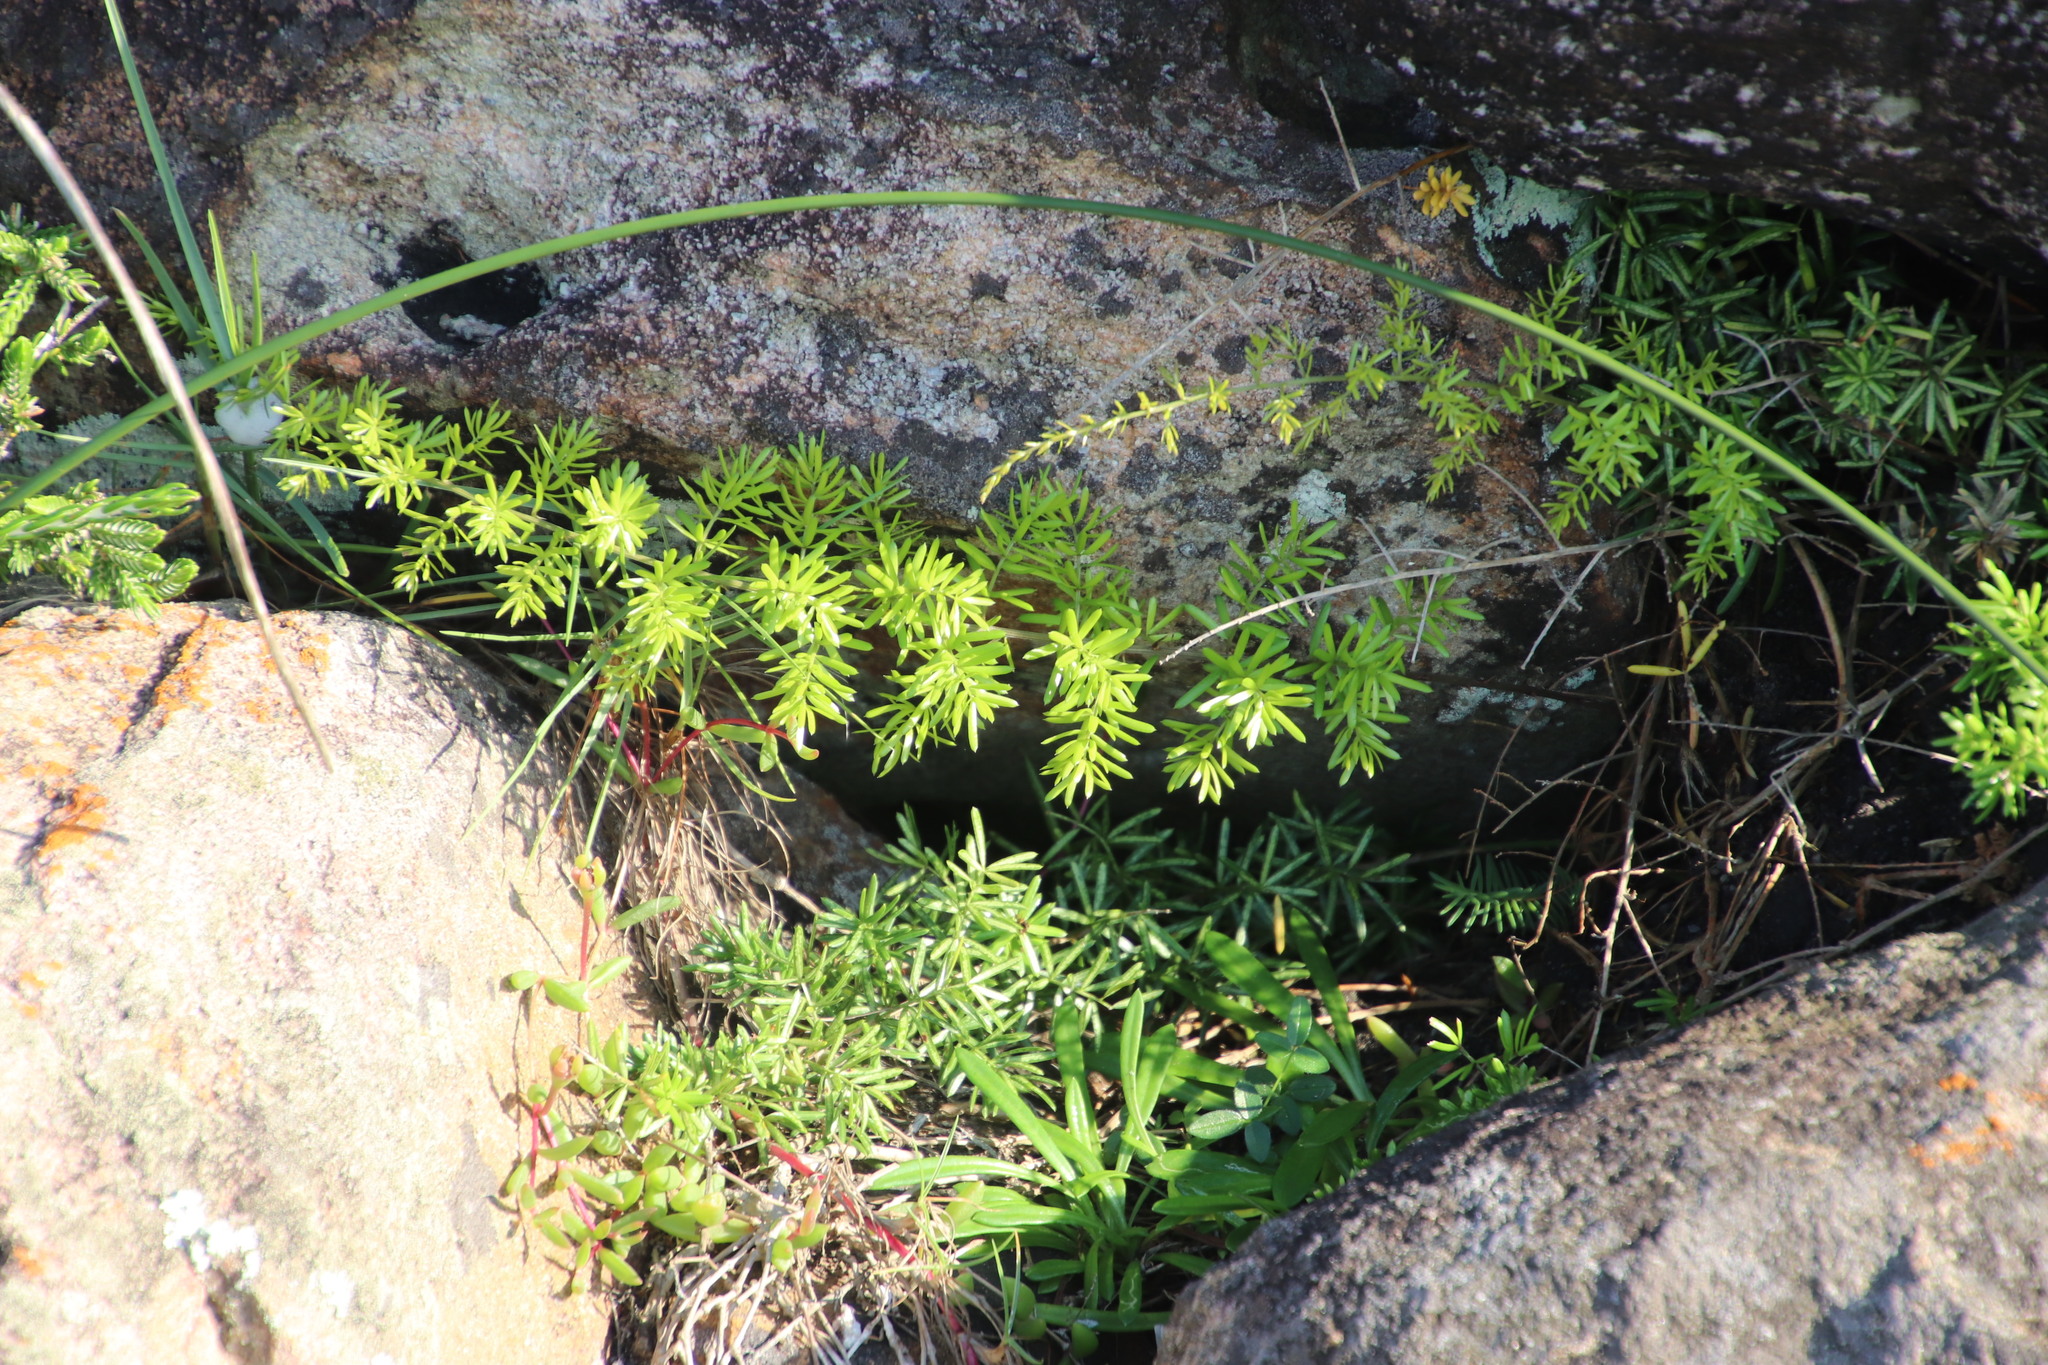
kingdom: Plantae
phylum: Tracheophyta
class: Liliopsida
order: Asparagales
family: Asparagaceae
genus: Asparagus
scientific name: Asparagus densiflorus
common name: Asparagus fern
